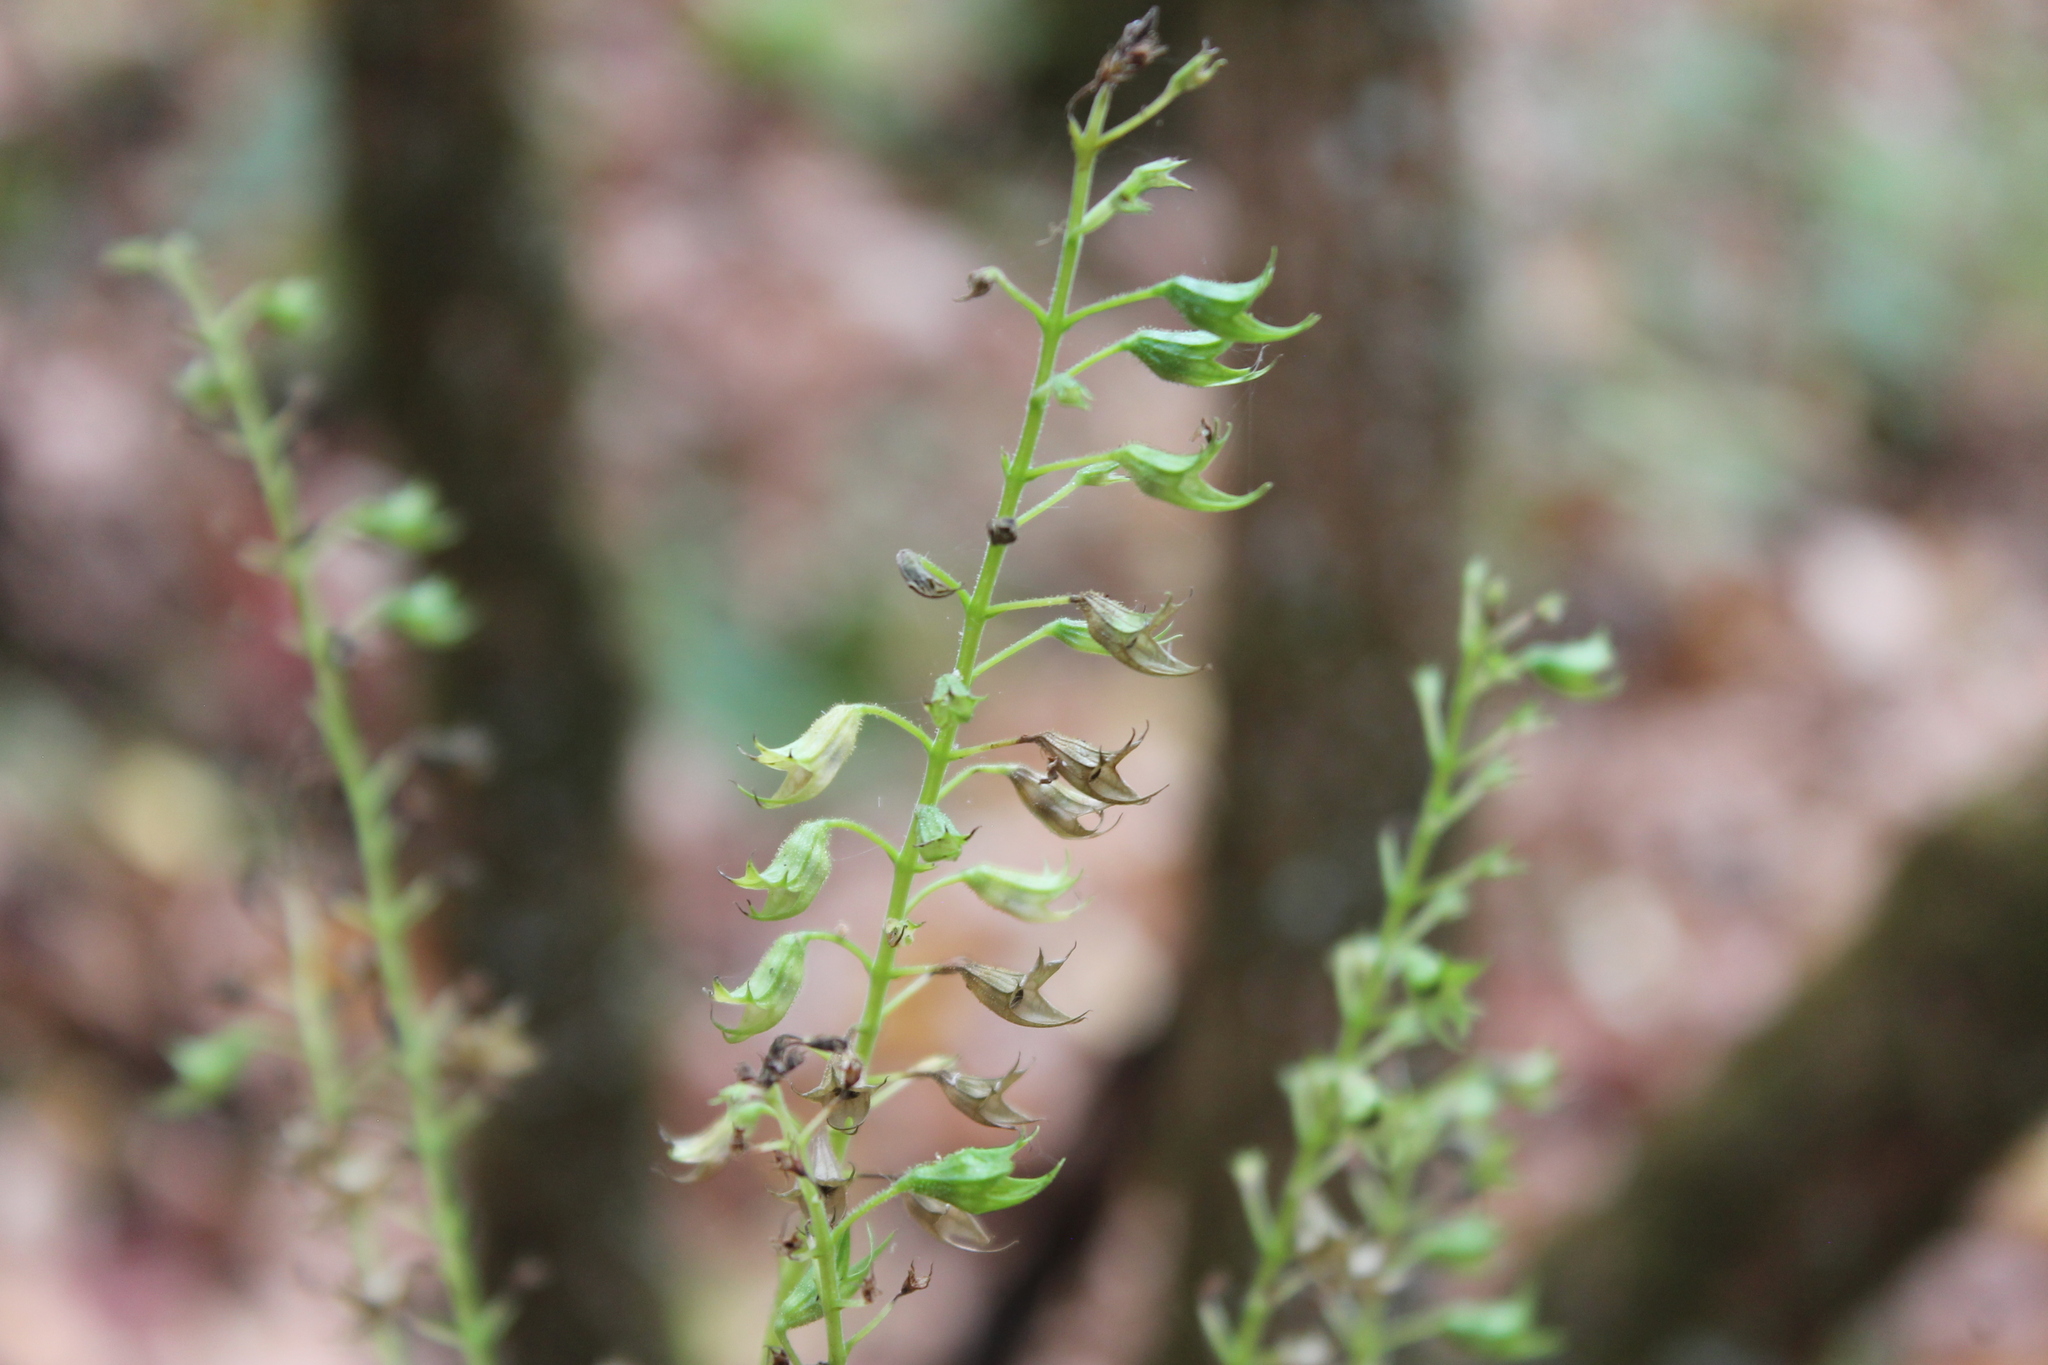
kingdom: Plantae
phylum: Tracheophyta
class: Magnoliopsida
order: Lamiales
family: Lamiaceae
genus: Collinsonia
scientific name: Collinsonia canadensis
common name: Northern horsebalm
